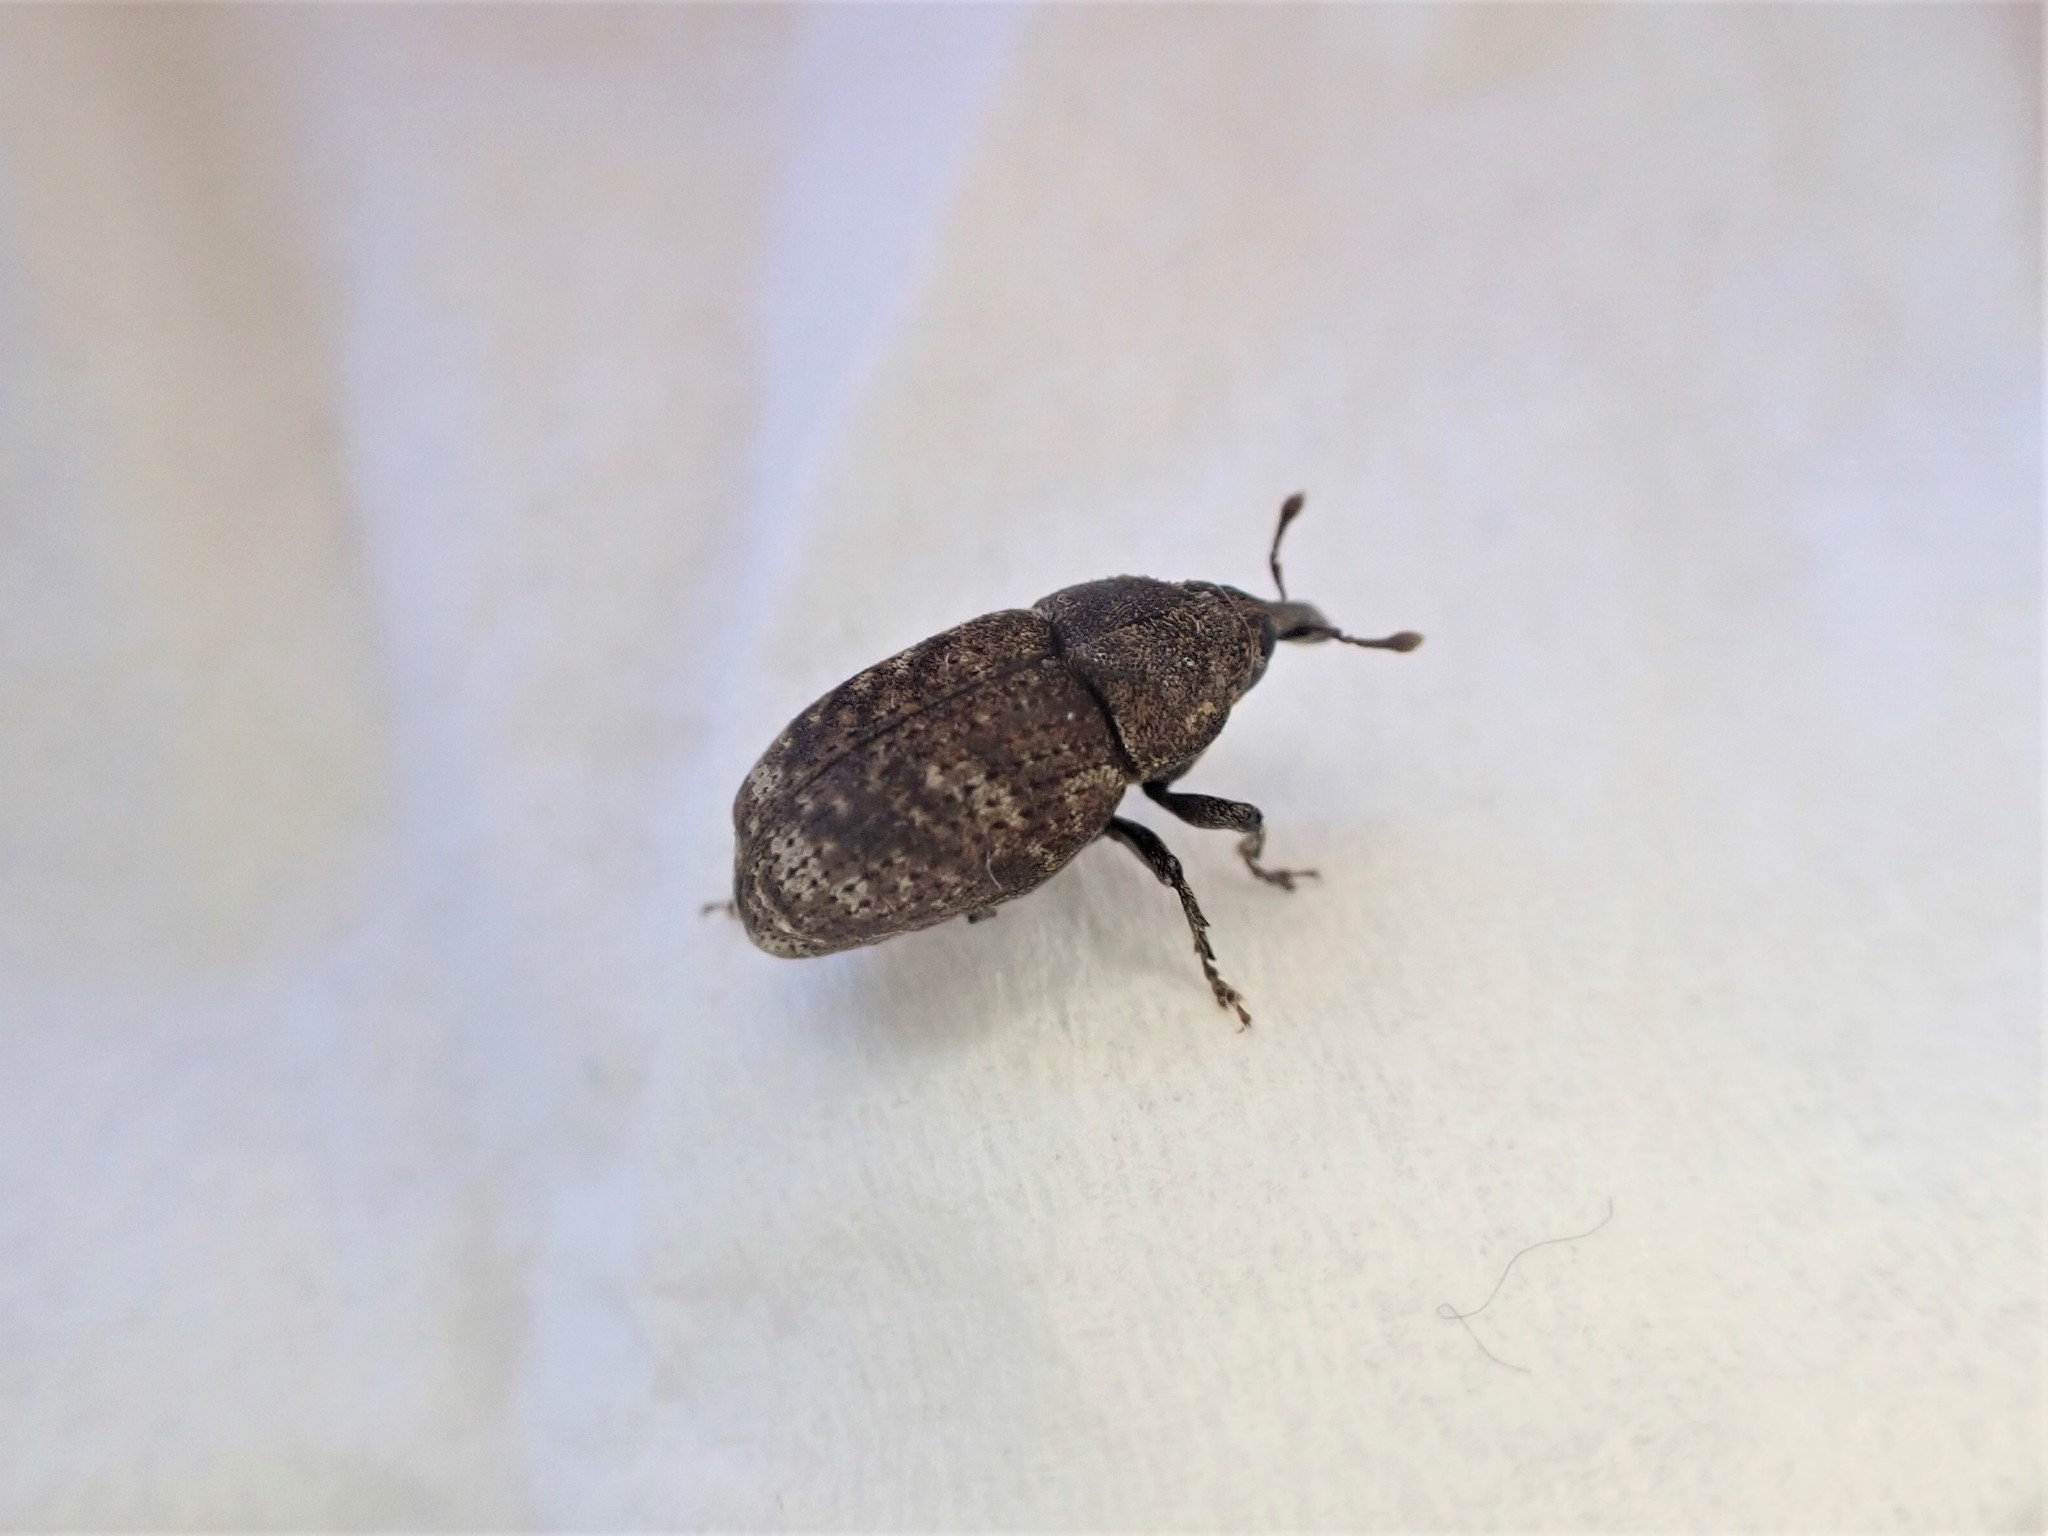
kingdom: Animalia
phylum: Arthropoda
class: Insecta
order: Coleoptera
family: Curculionidae
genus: Homoreda
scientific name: Homoreda
